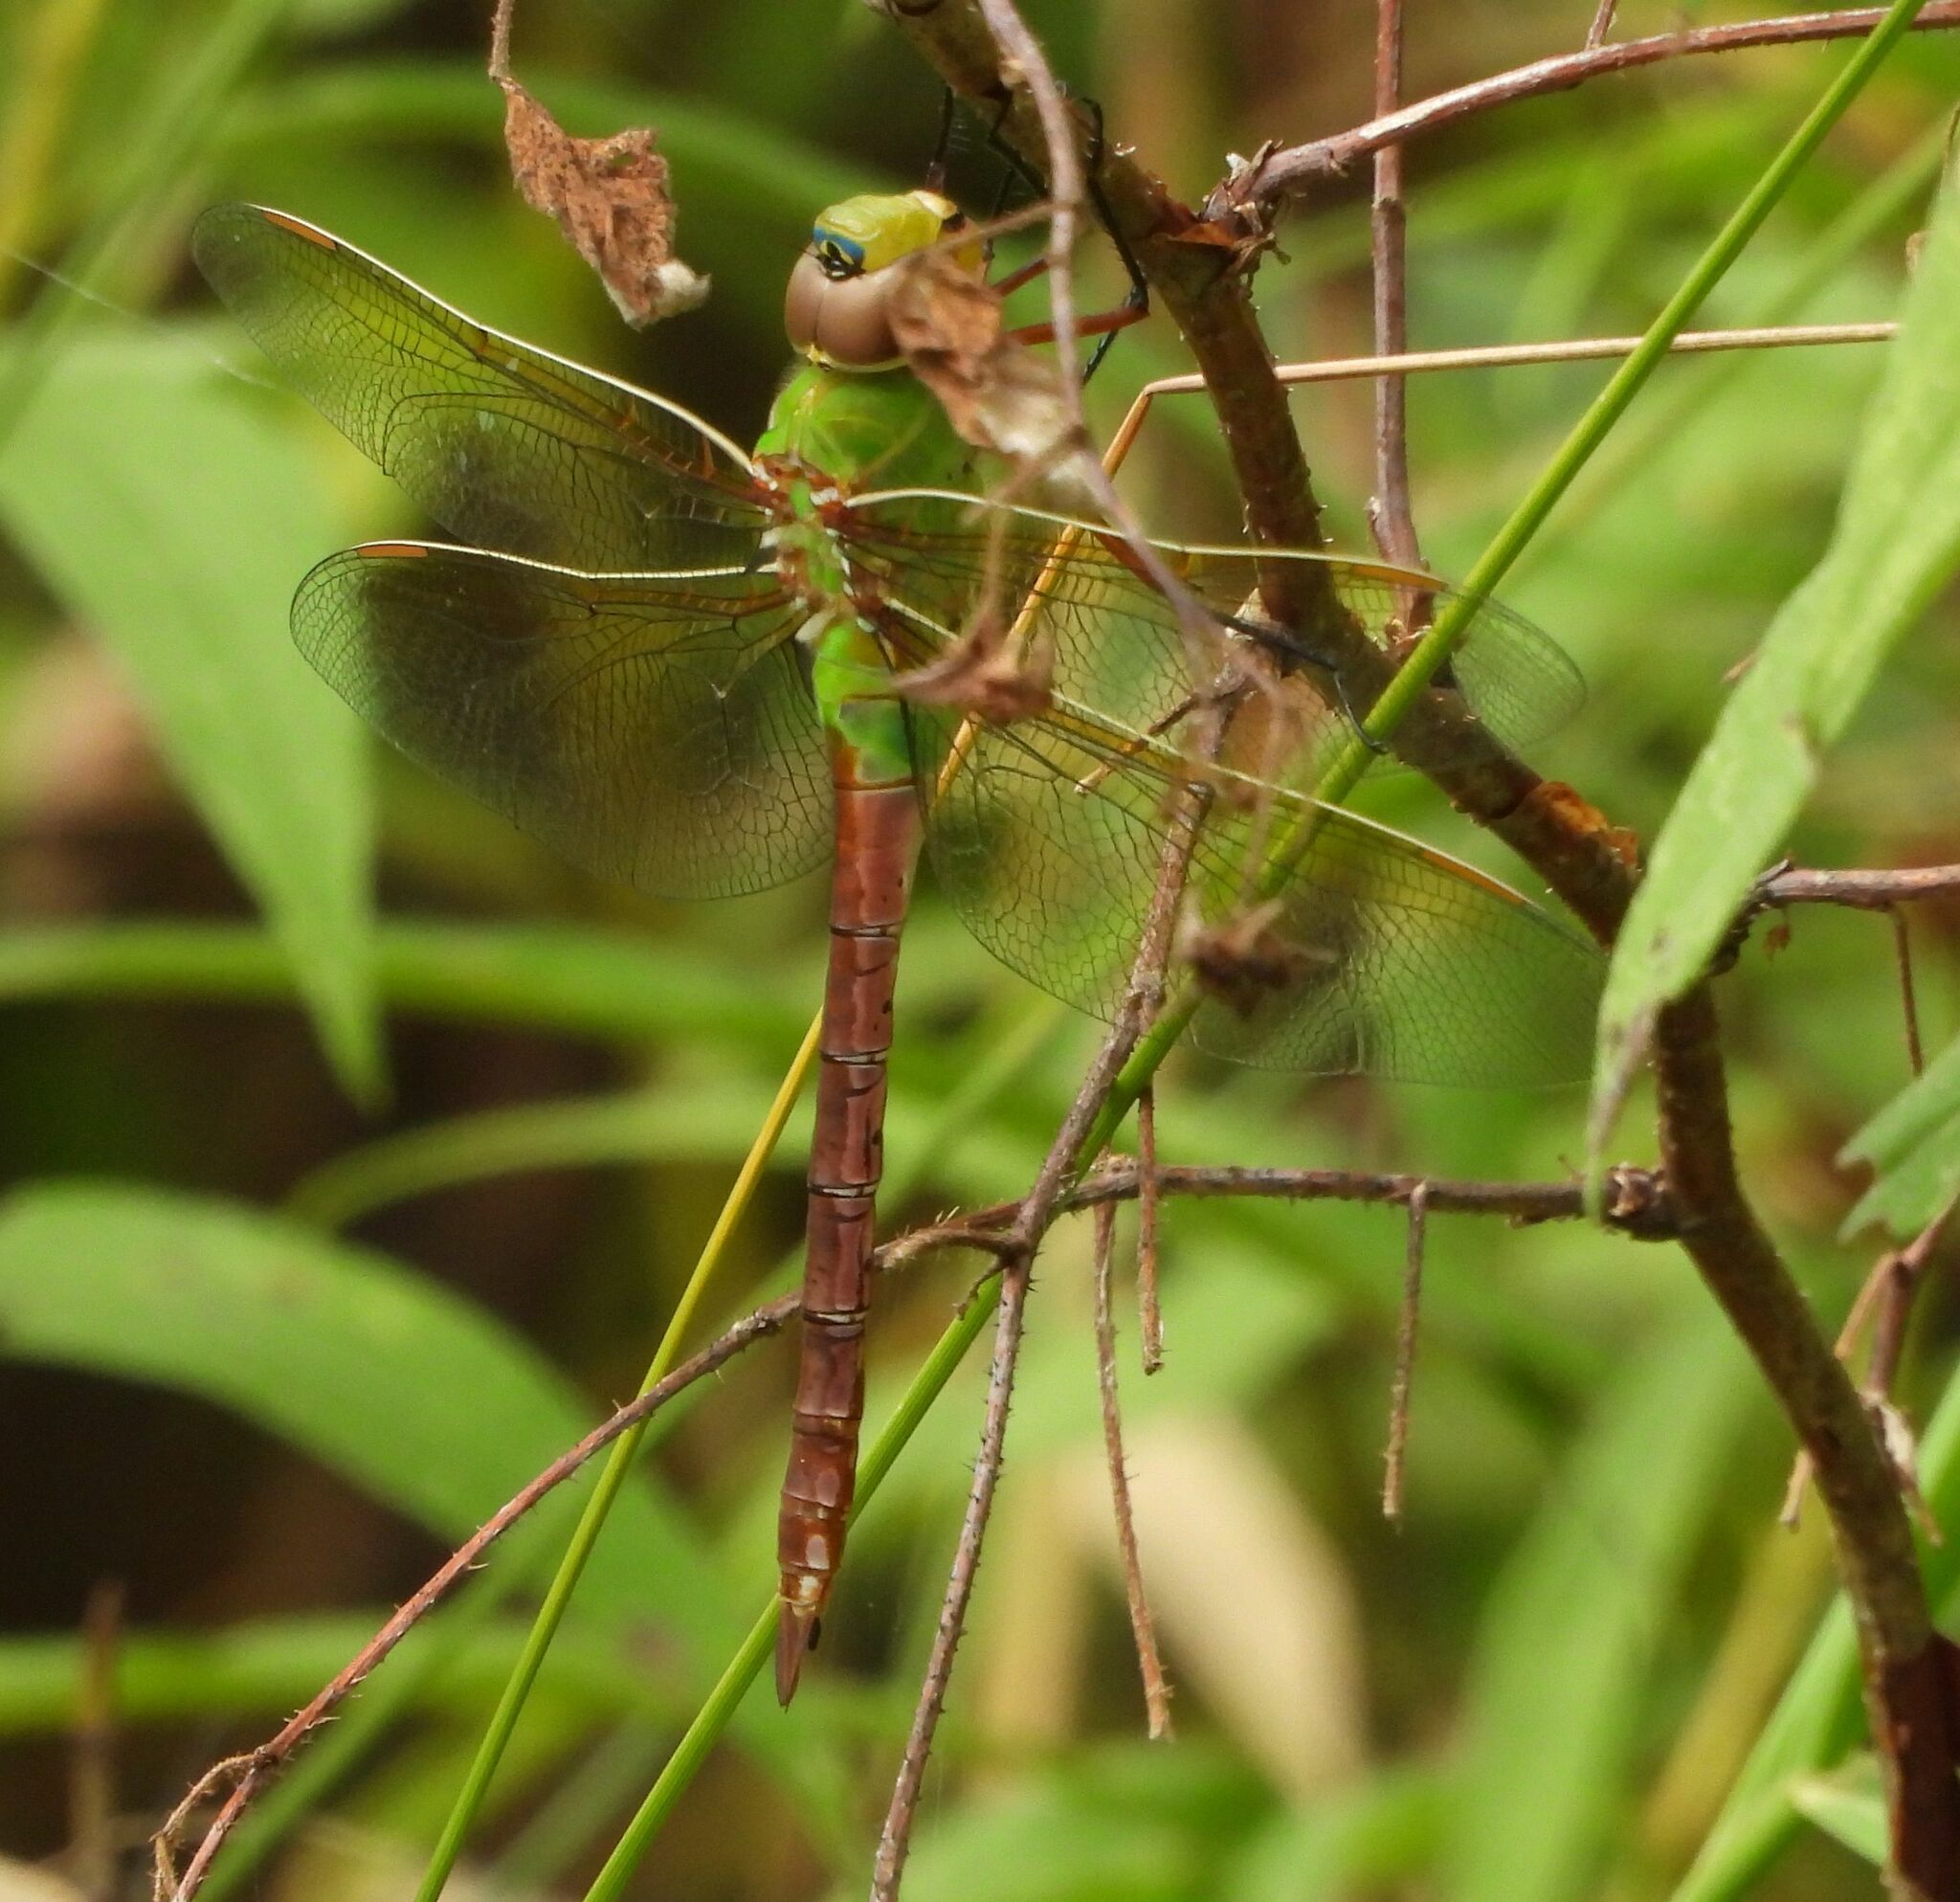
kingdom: Animalia
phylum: Arthropoda
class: Insecta
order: Odonata
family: Aeshnidae
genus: Anax
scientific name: Anax junius
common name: Common green darner
